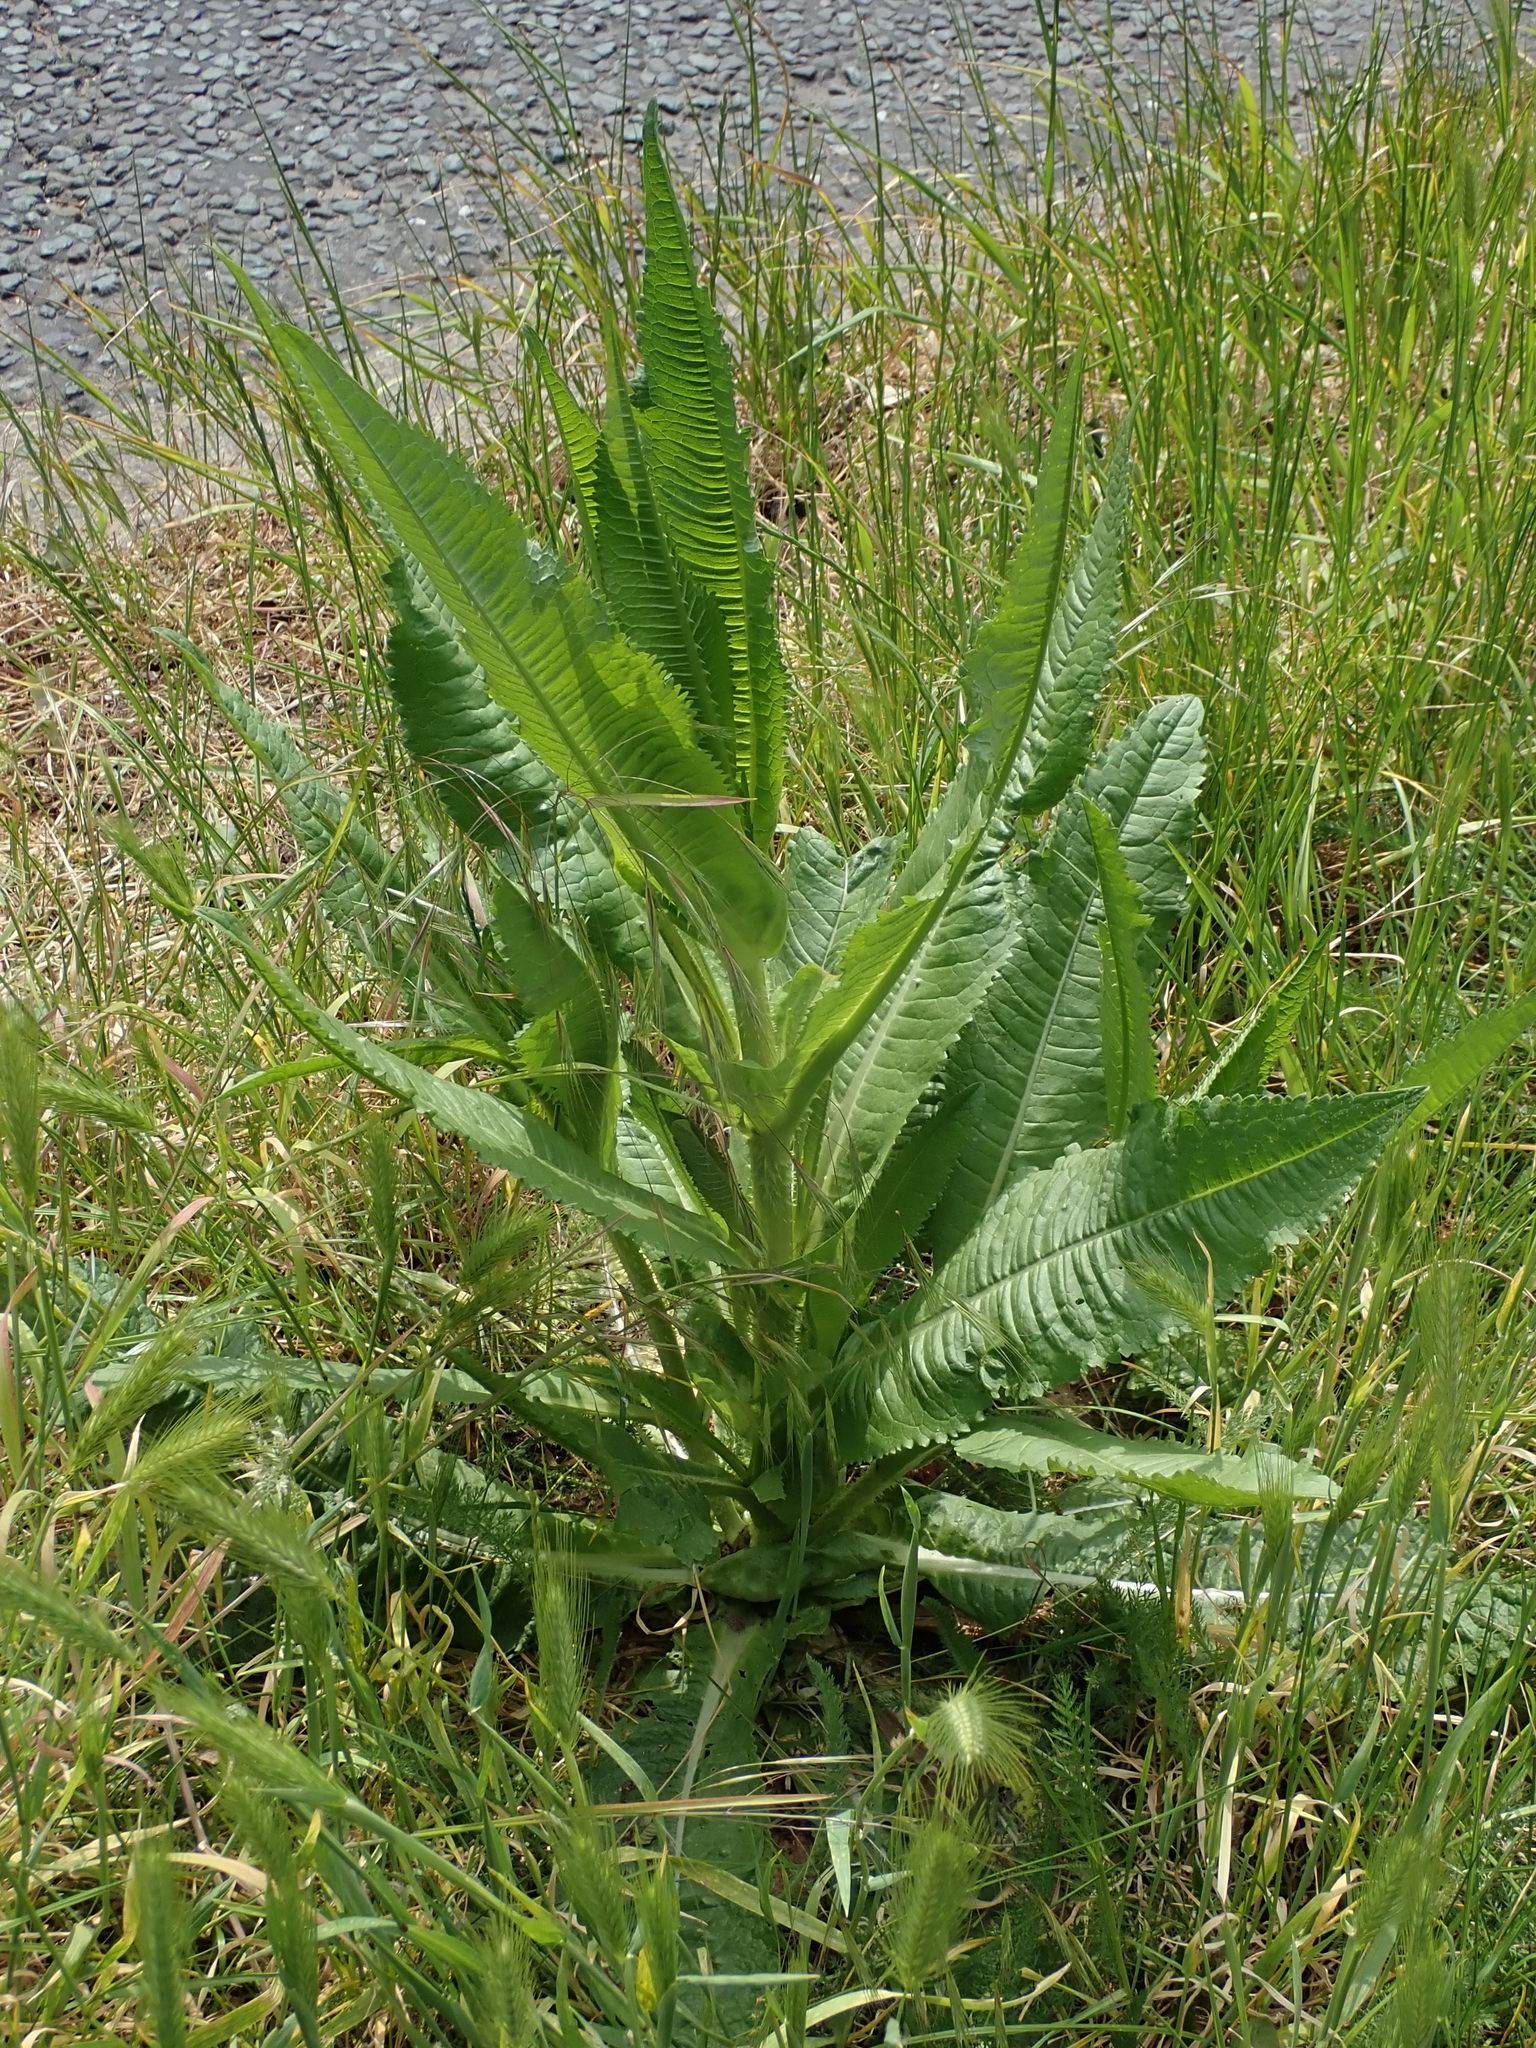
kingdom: Plantae
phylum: Tracheophyta
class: Magnoliopsida
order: Dipsacales
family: Caprifoliaceae
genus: Dipsacus
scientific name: Dipsacus fullonum
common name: Teasel
